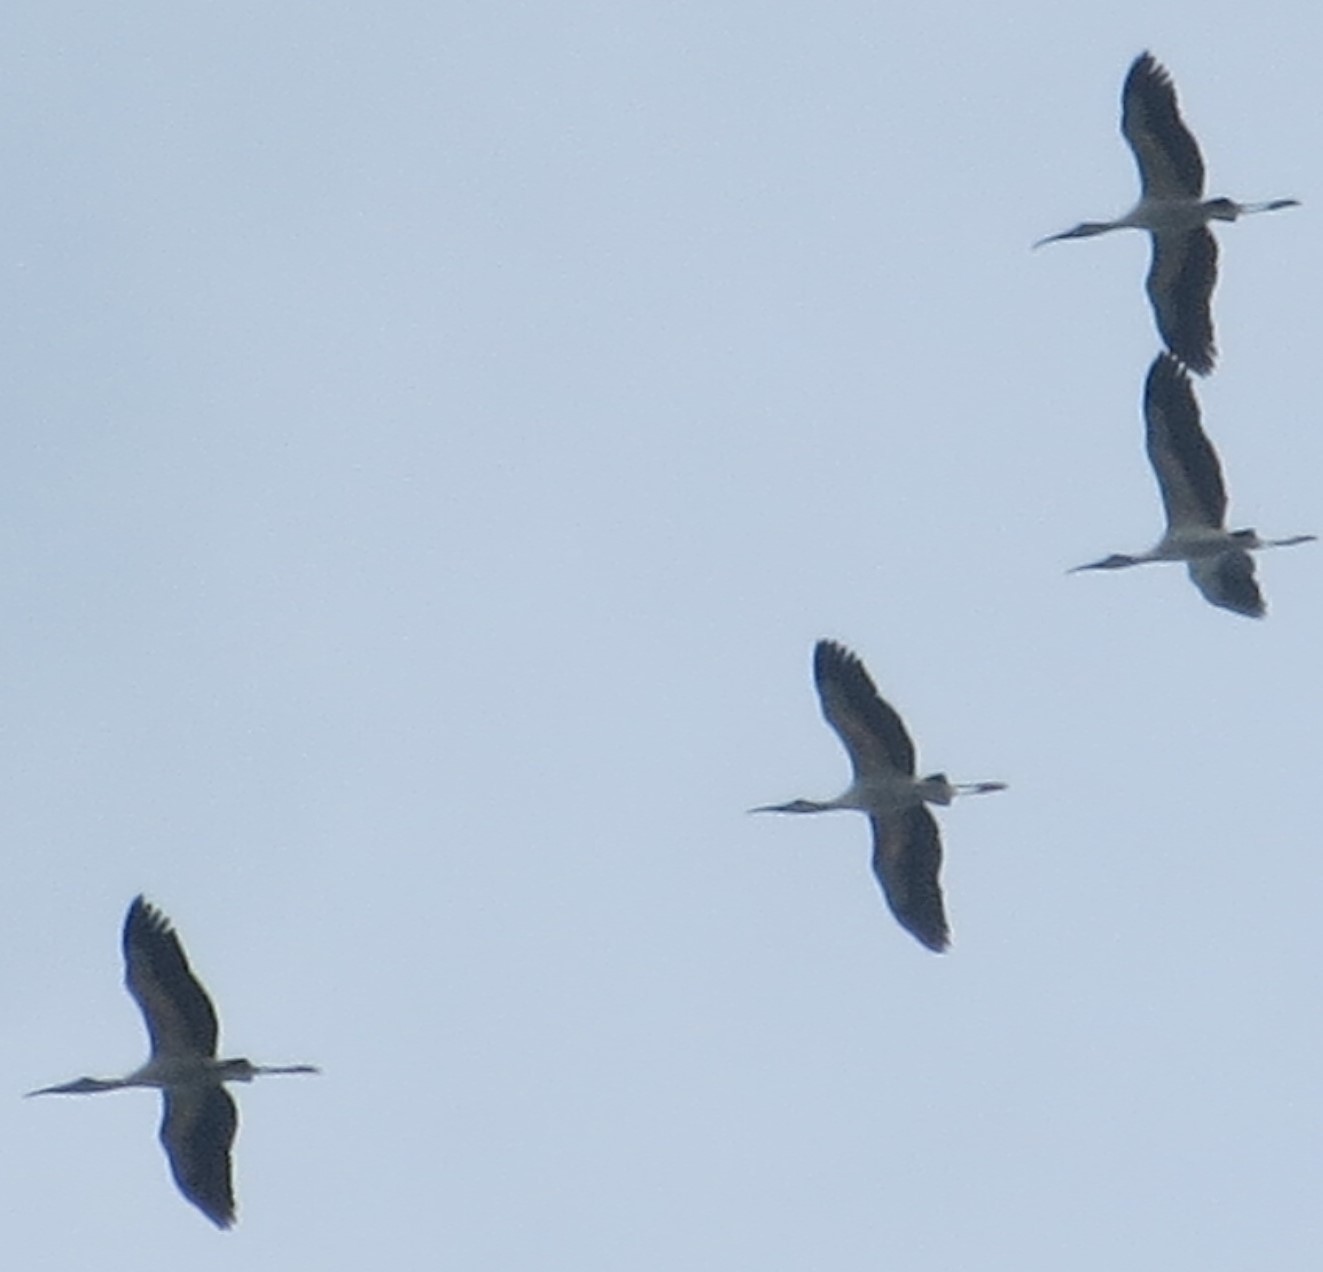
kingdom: Animalia
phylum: Chordata
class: Aves
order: Ciconiiformes
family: Ciconiidae
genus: Mycteria
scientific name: Mycteria americana
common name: Wood stork
